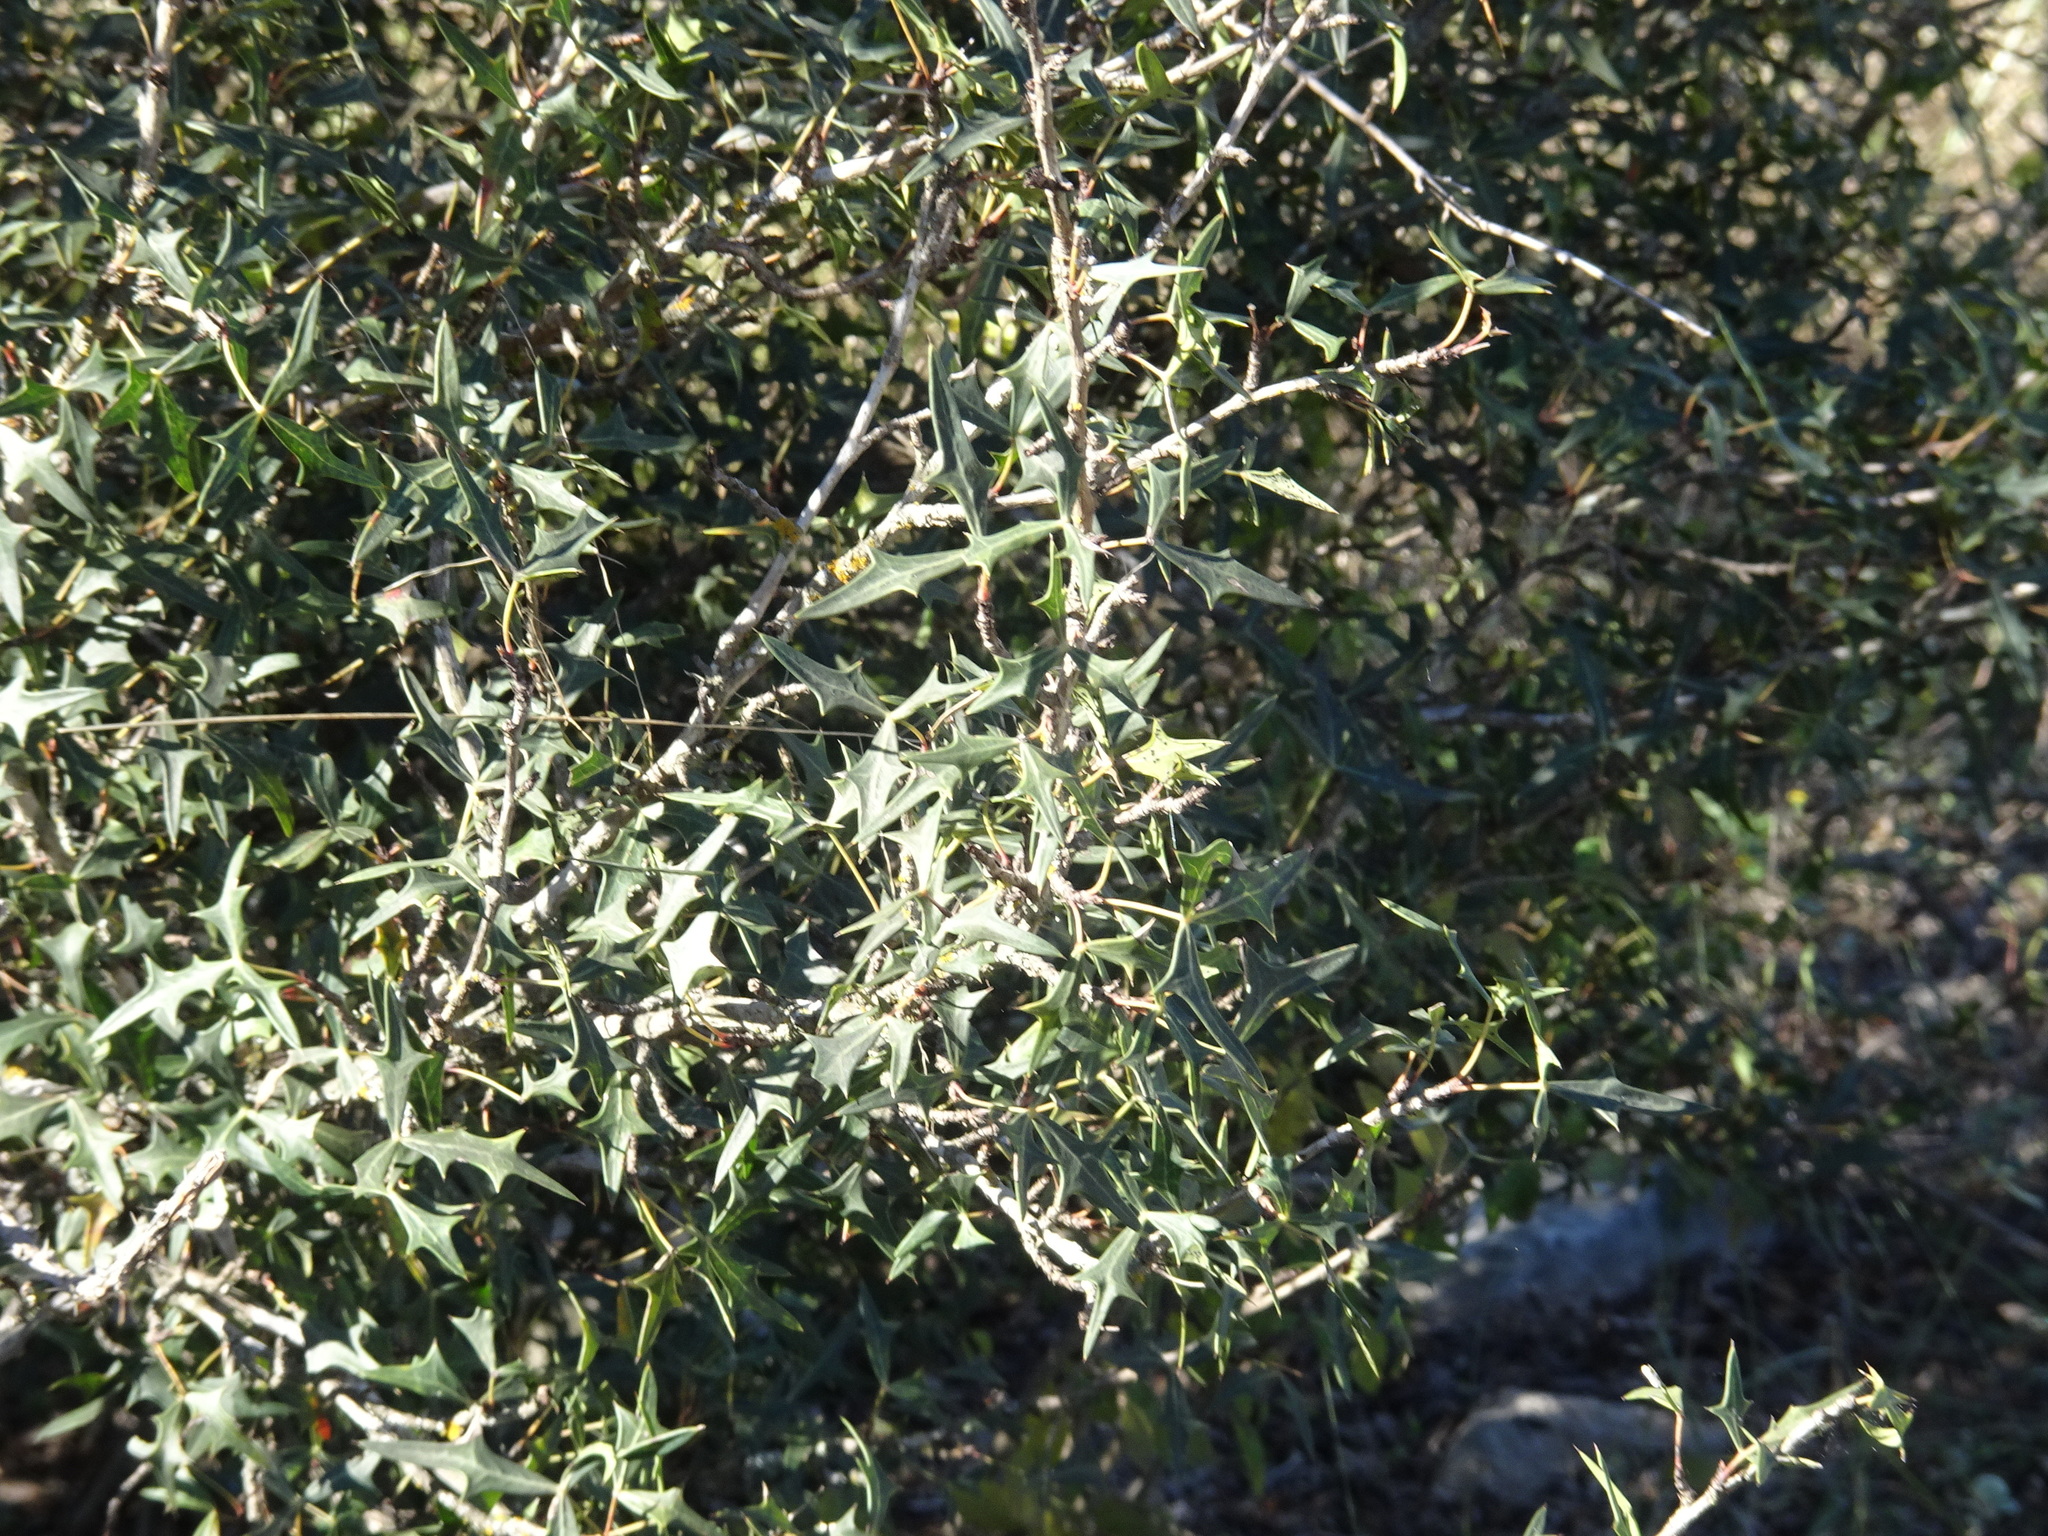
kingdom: Plantae
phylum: Tracheophyta
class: Magnoliopsida
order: Ranunculales
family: Berberidaceae
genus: Alloberberis
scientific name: Alloberberis trifoliolata
